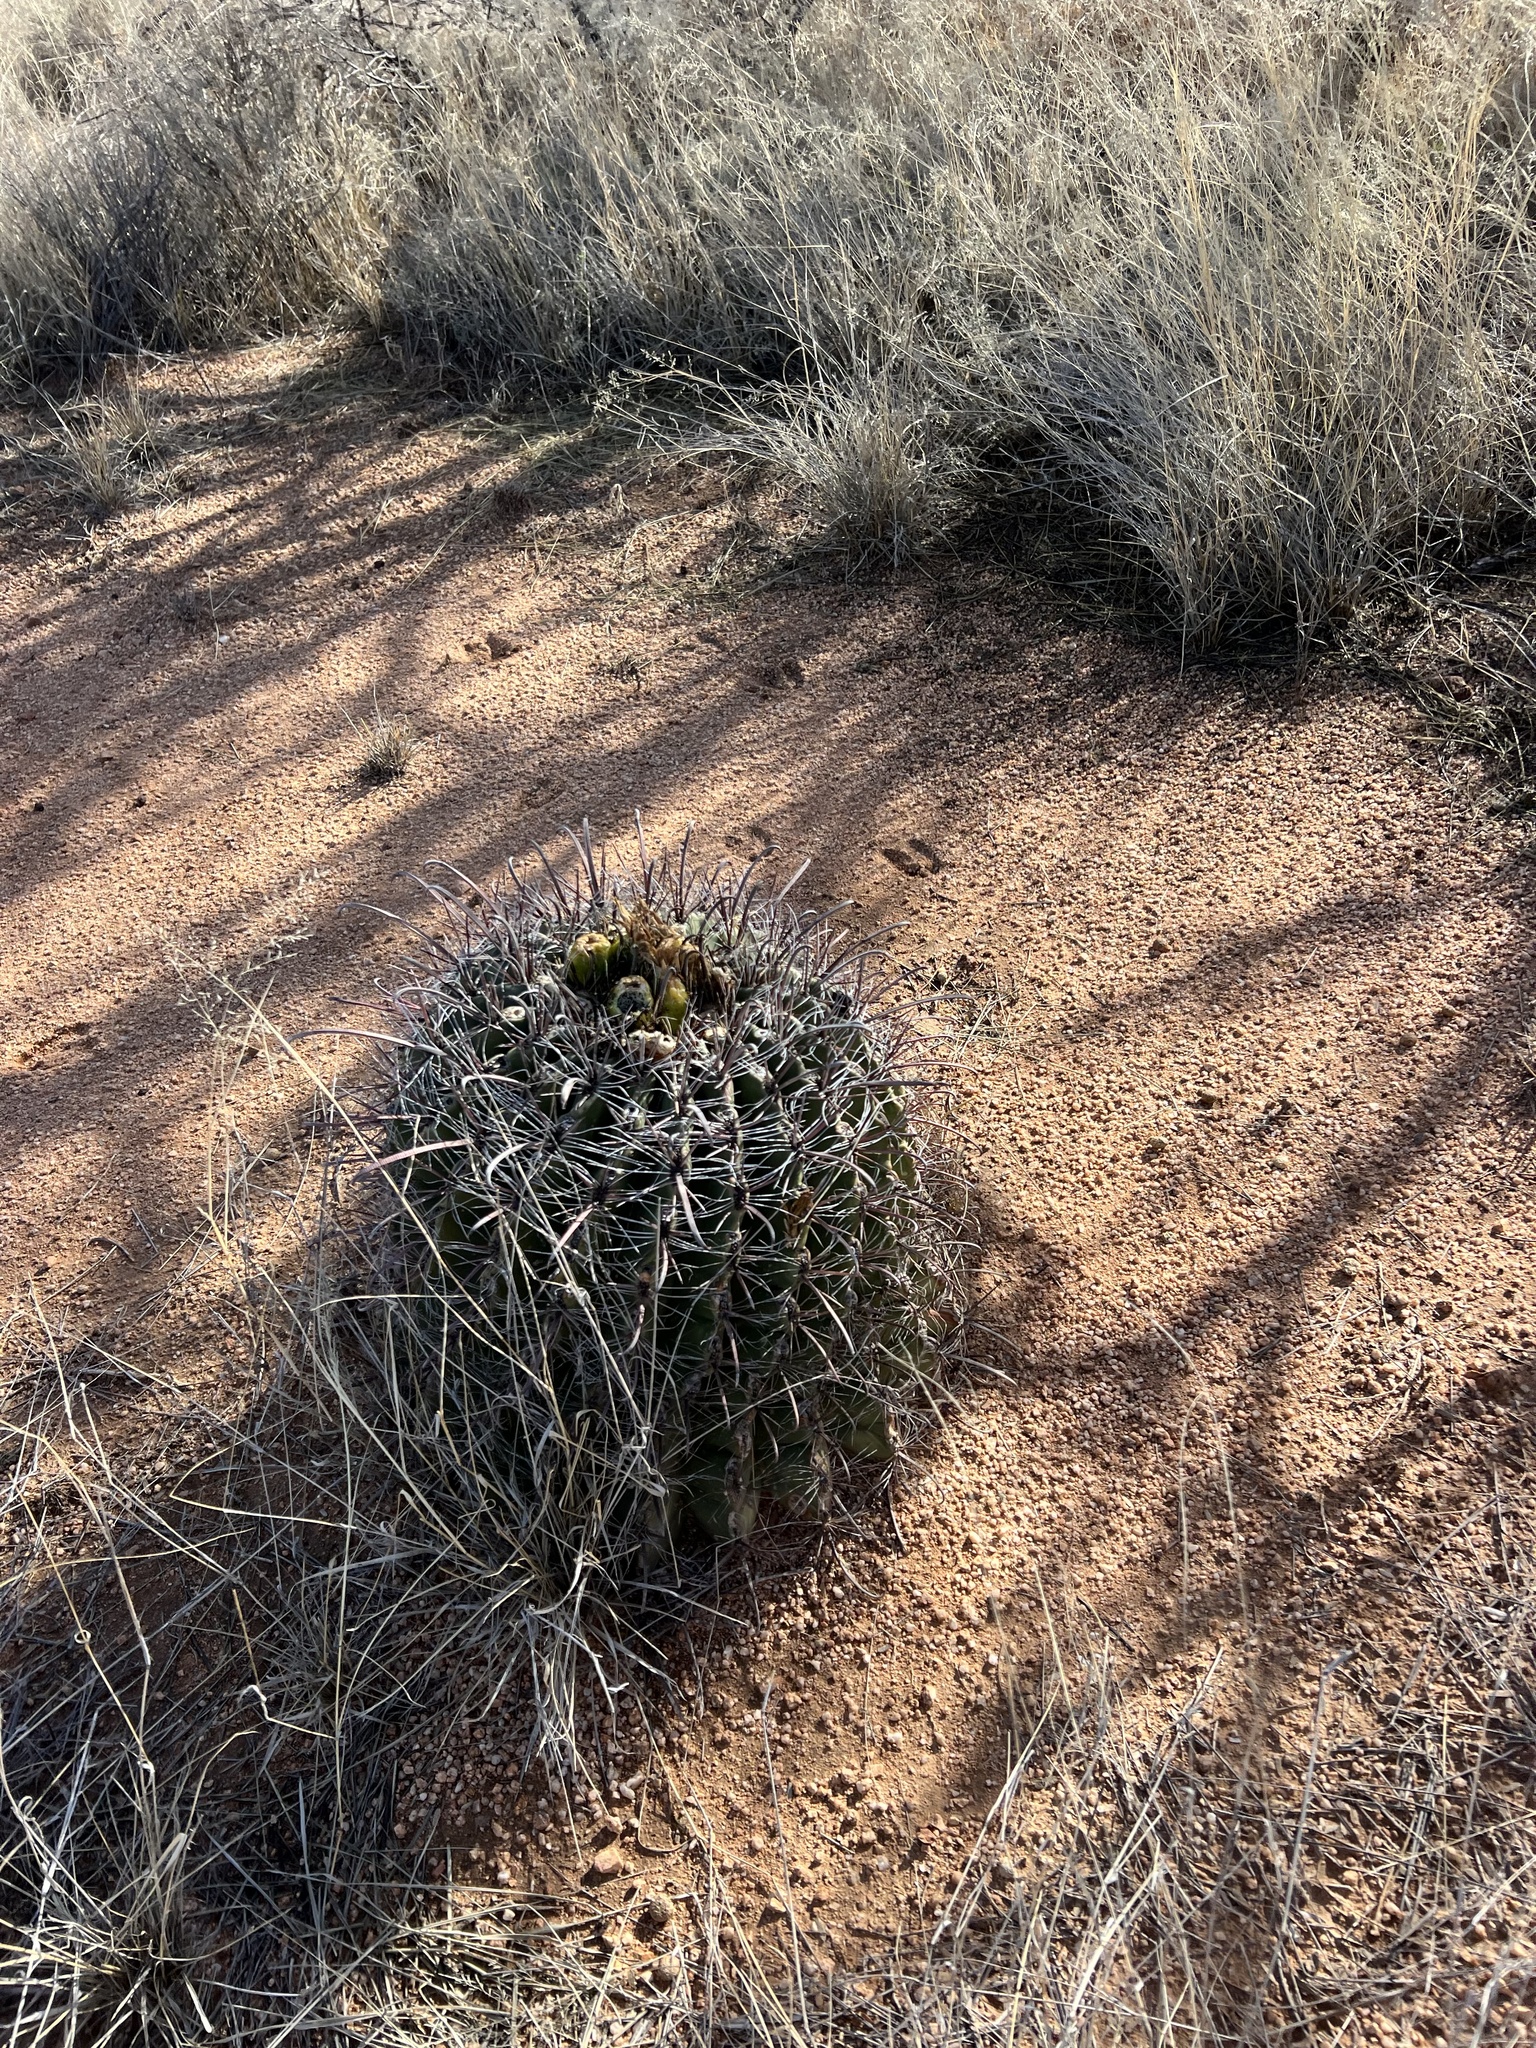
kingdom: Plantae
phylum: Tracheophyta
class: Magnoliopsida
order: Caryophyllales
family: Cactaceae
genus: Ferocactus
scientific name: Ferocactus wislizeni
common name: Candy barrel cactus
